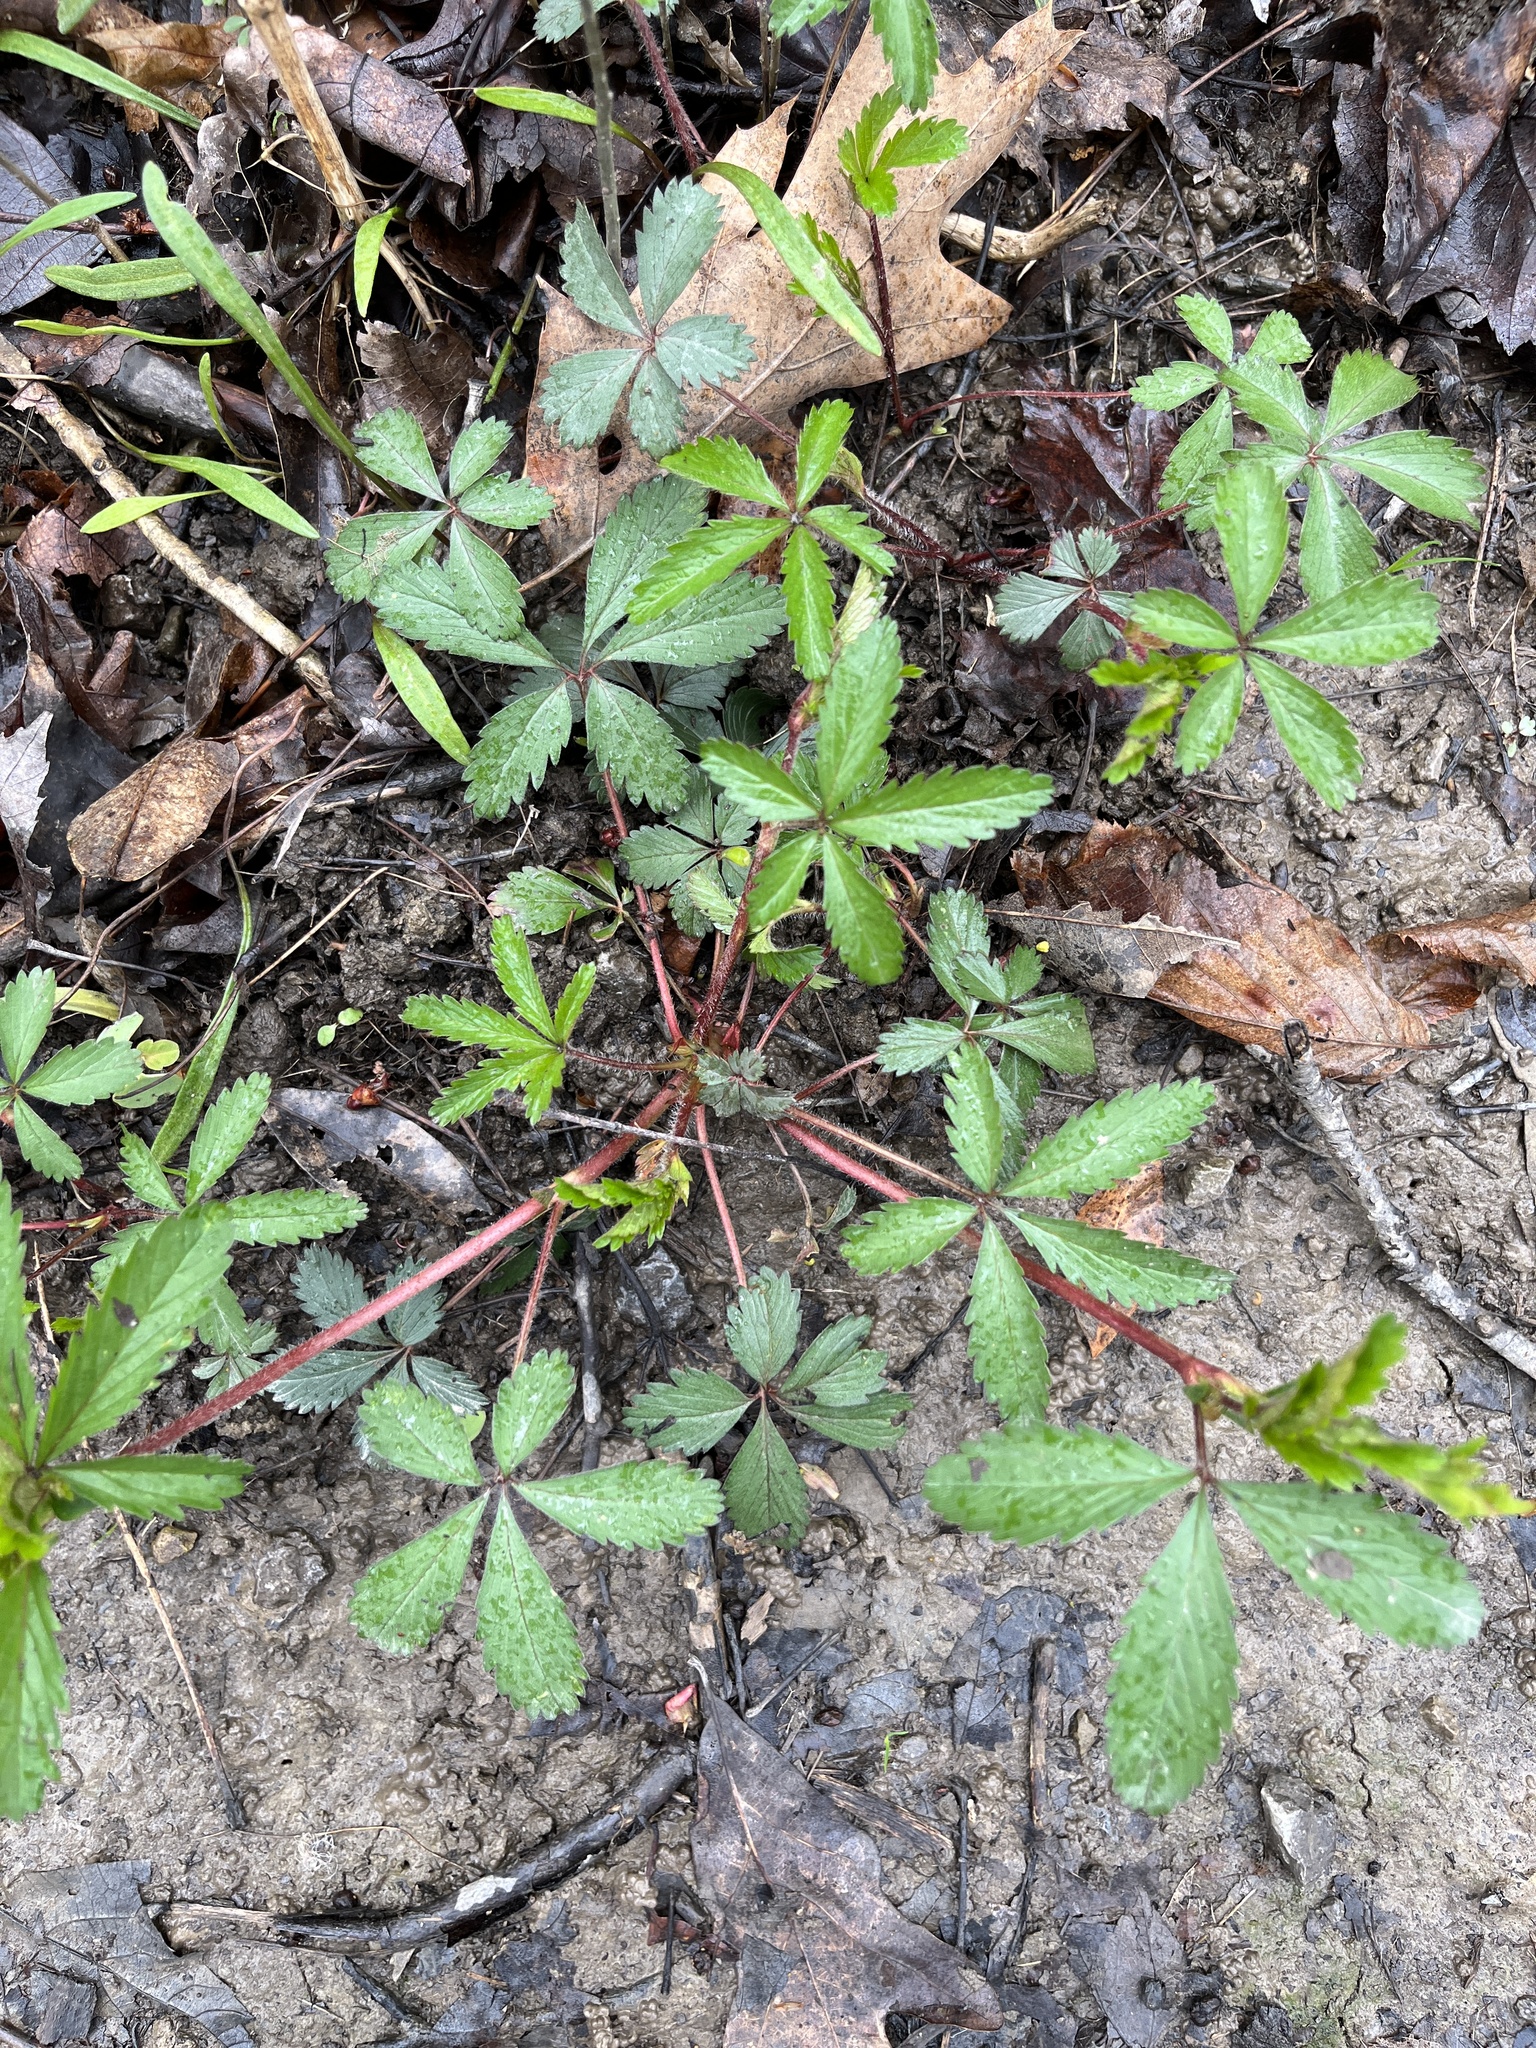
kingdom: Plantae
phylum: Tracheophyta
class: Magnoliopsida
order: Rosales
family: Rosaceae
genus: Potentilla
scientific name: Potentilla simplex
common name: Old field cinquefoil
